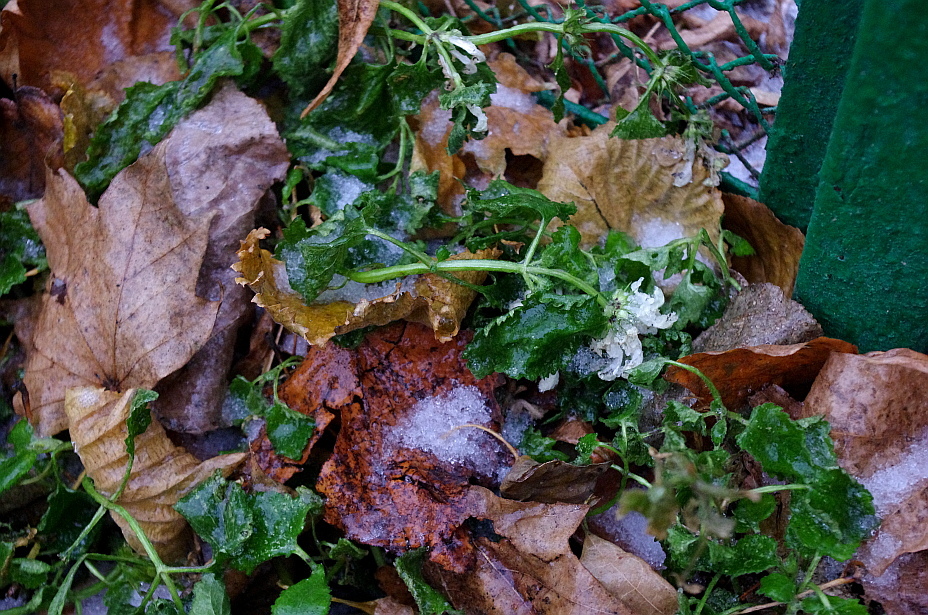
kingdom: Plantae
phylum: Tracheophyta
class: Magnoliopsida
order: Lamiales
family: Lamiaceae
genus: Lamium
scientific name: Lamium album
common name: White dead-nettle
